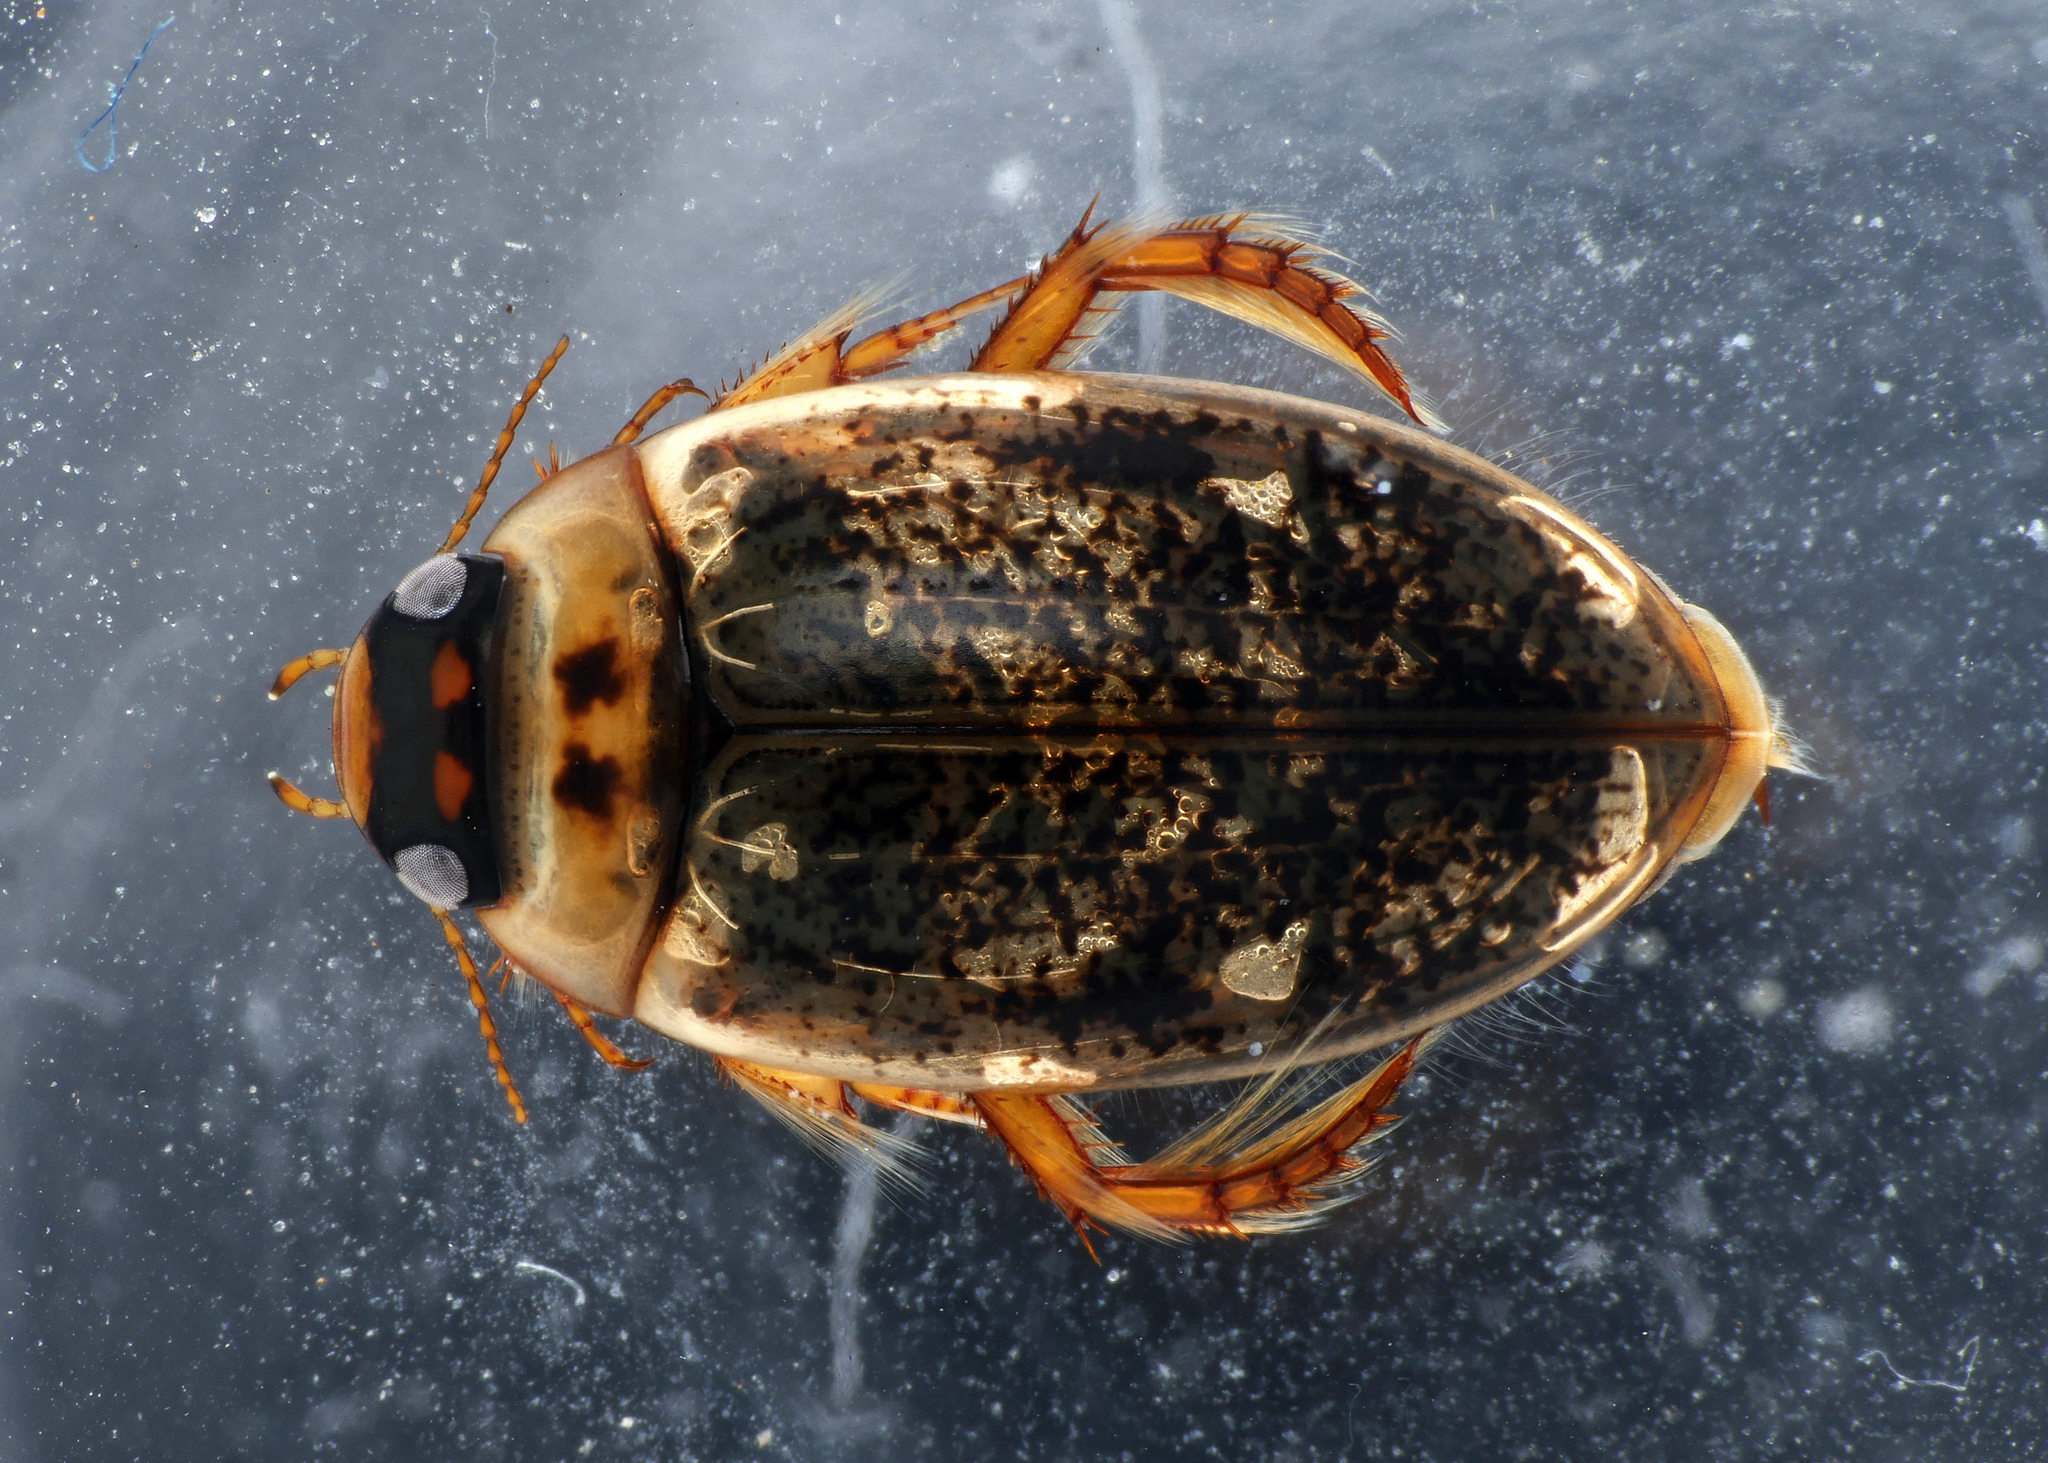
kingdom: Animalia
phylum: Arthropoda
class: Insecta
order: Coleoptera
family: Dytiscidae
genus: Agabus
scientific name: Agabus nebulosus
